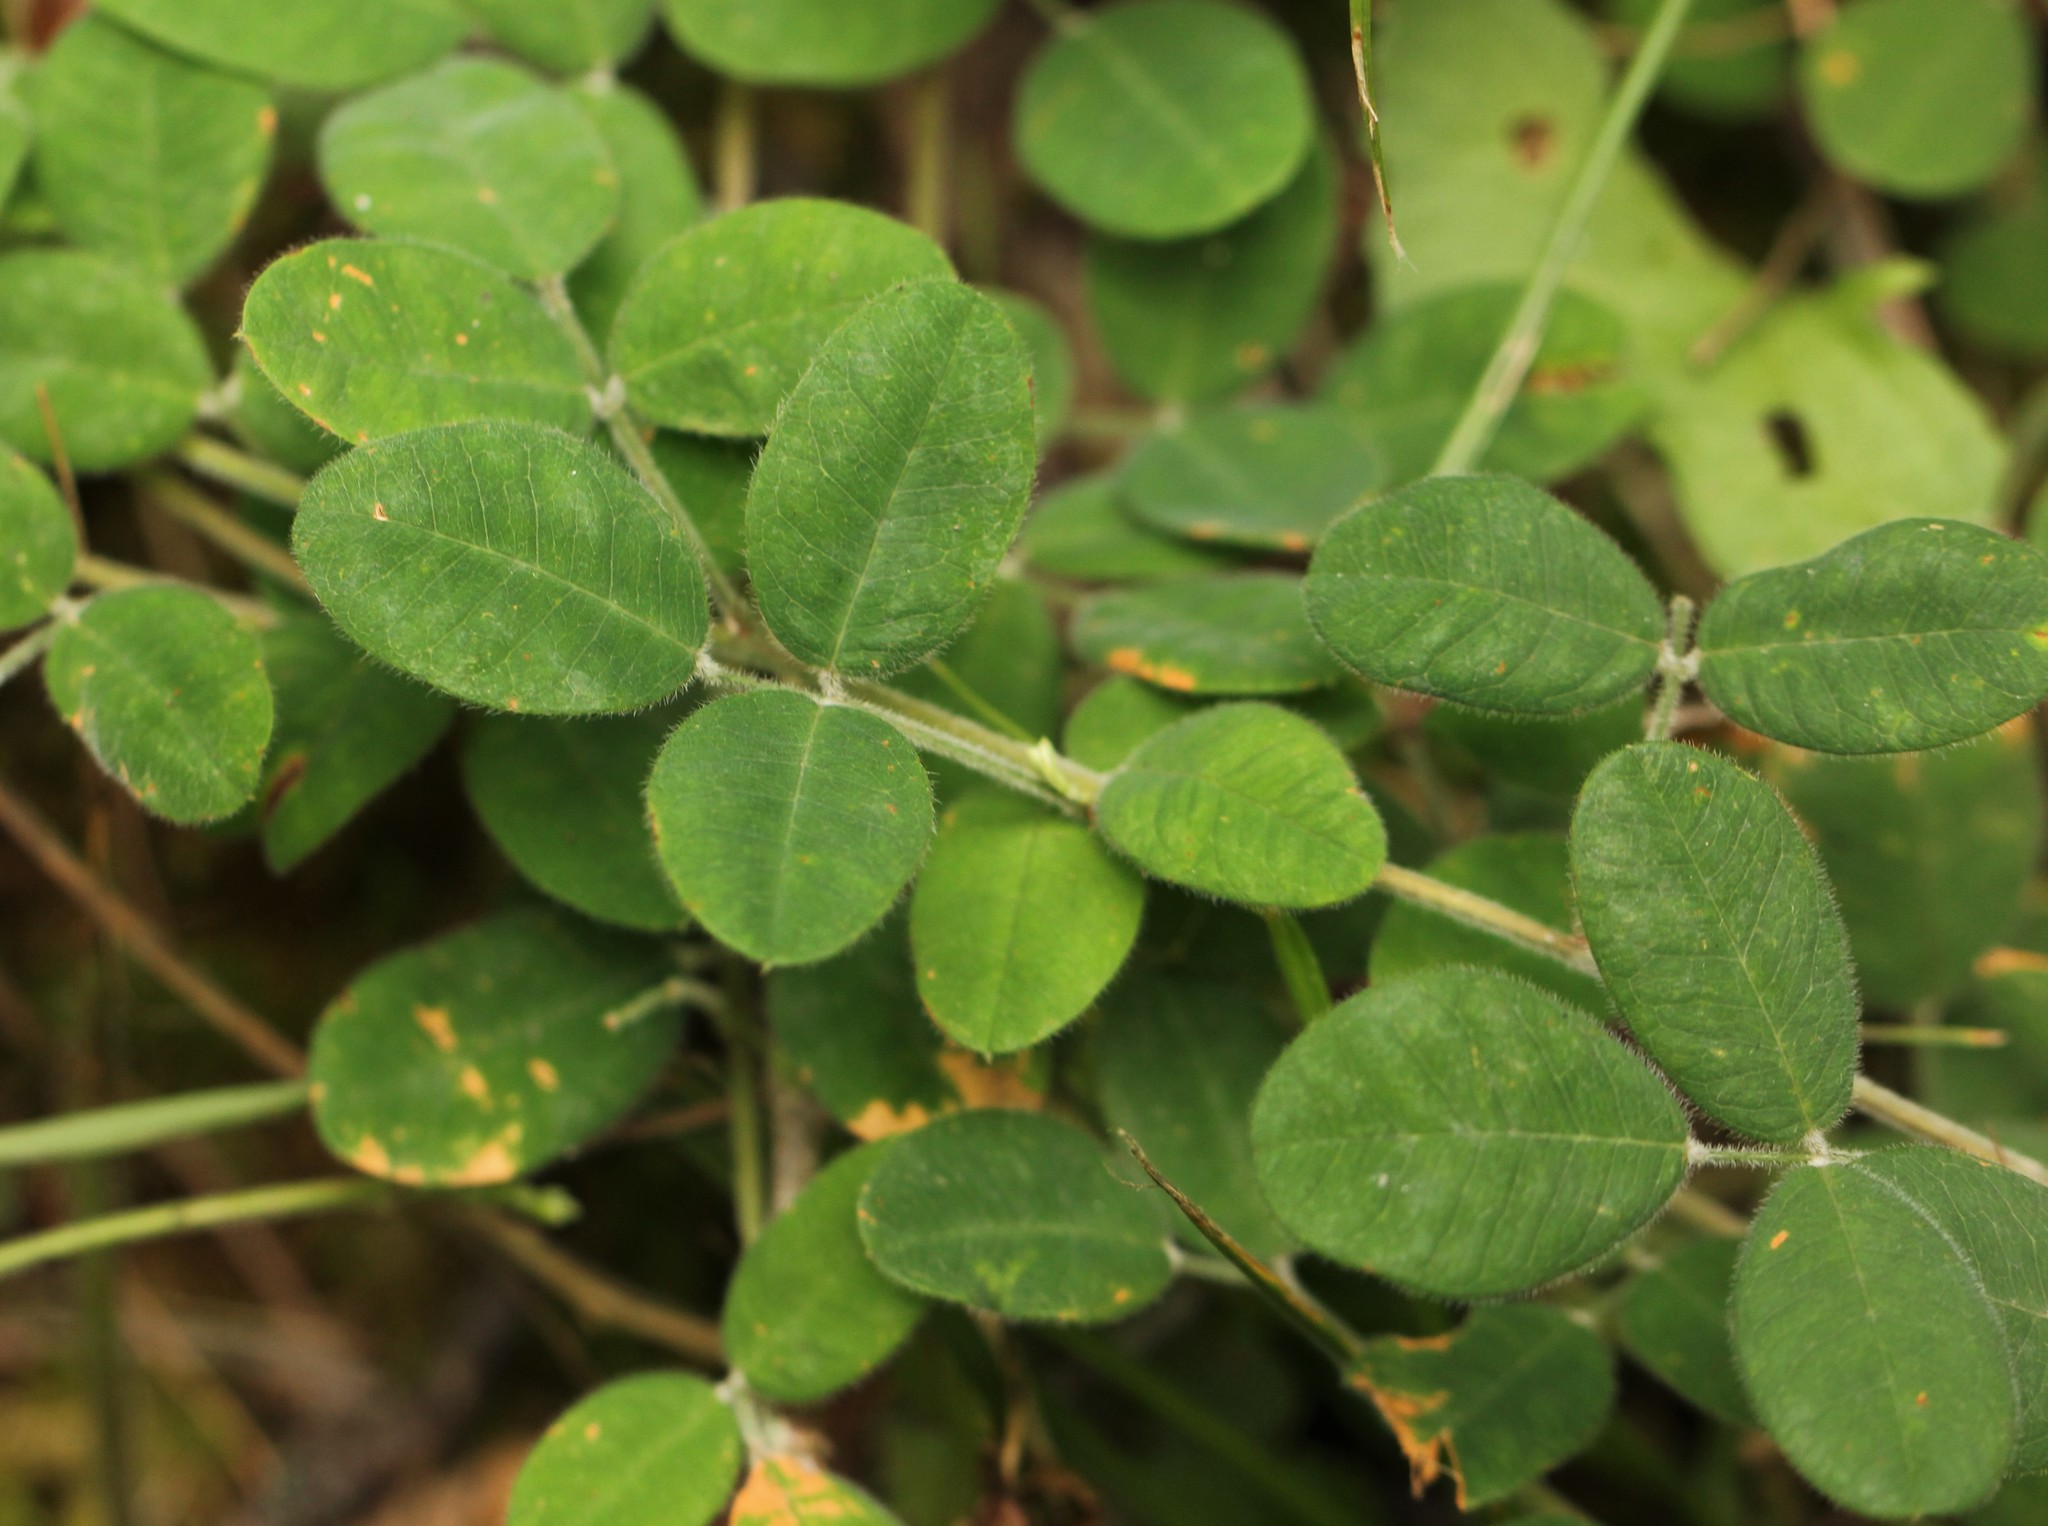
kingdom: Plantae
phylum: Tracheophyta
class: Magnoliopsida
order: Fabales
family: Fabaceae
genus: Lespedeza
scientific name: Lespedeza procumbens
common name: Downy trailing bush-clover
